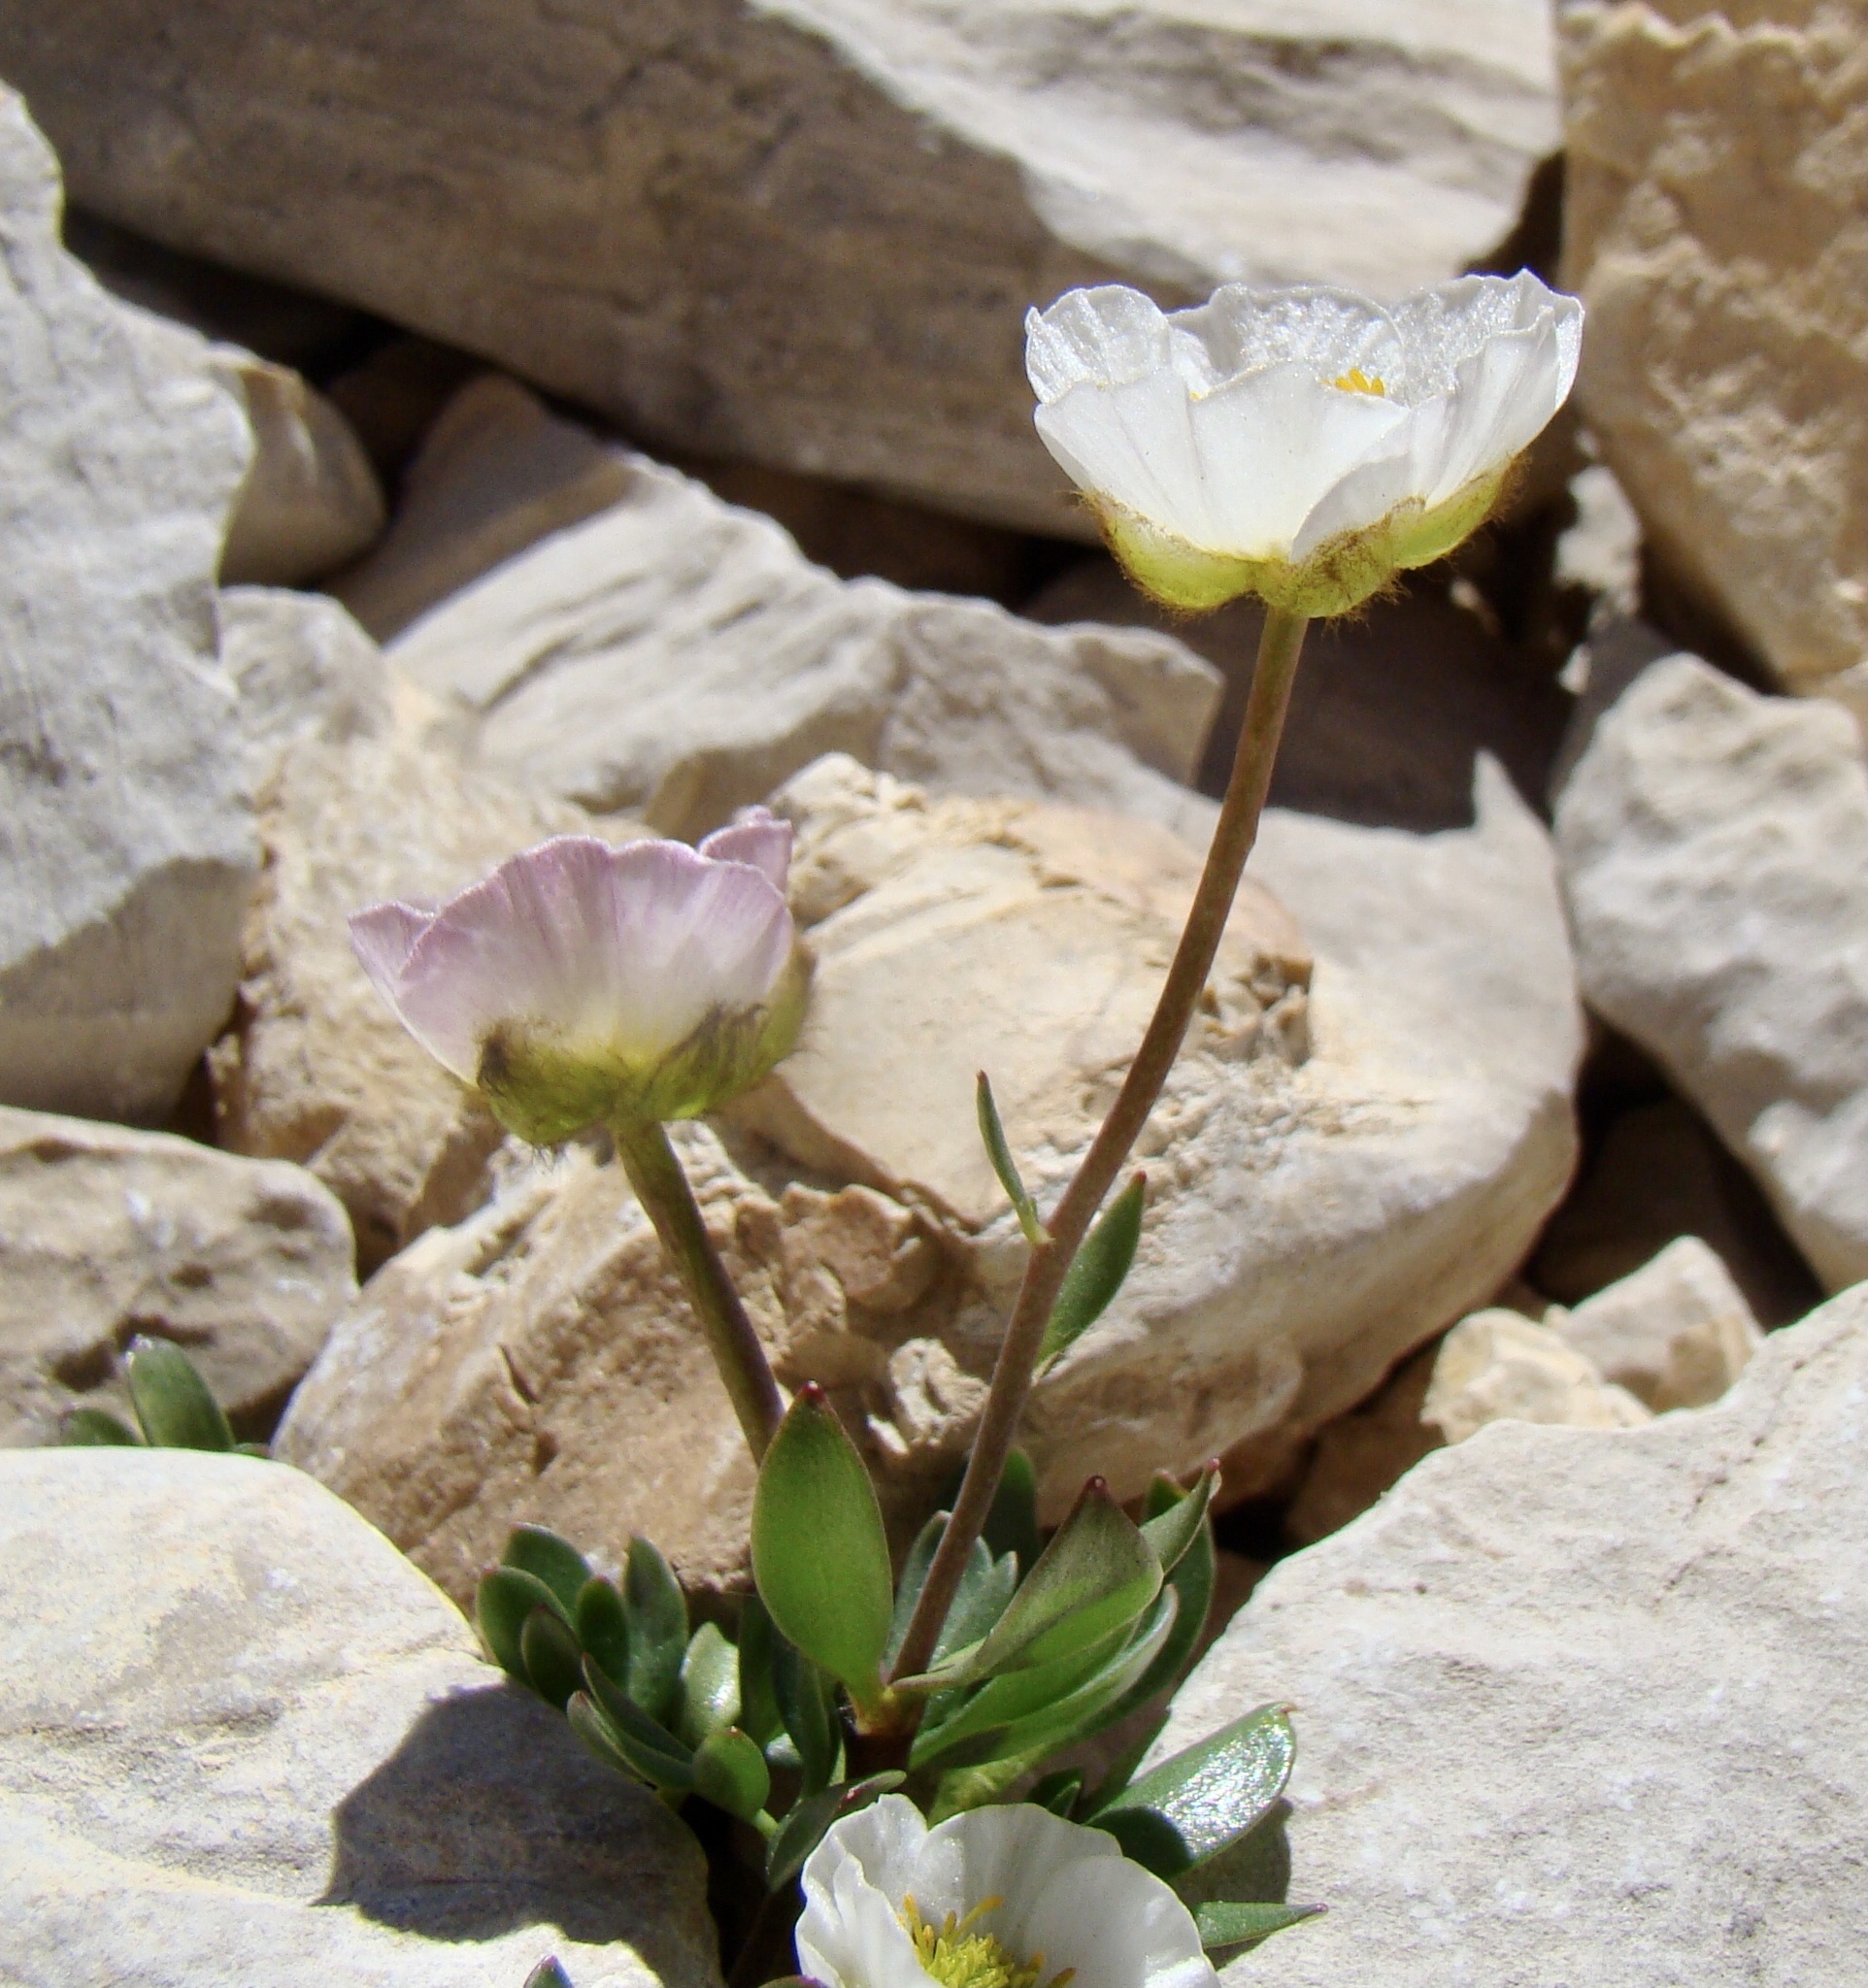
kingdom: Plantae
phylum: Tracheophyta
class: Magnoliopsida
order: Ranunculales
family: Ranunculaceae
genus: Ranunculus
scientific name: Ranunculus glacialis
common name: Glacier buttercup
